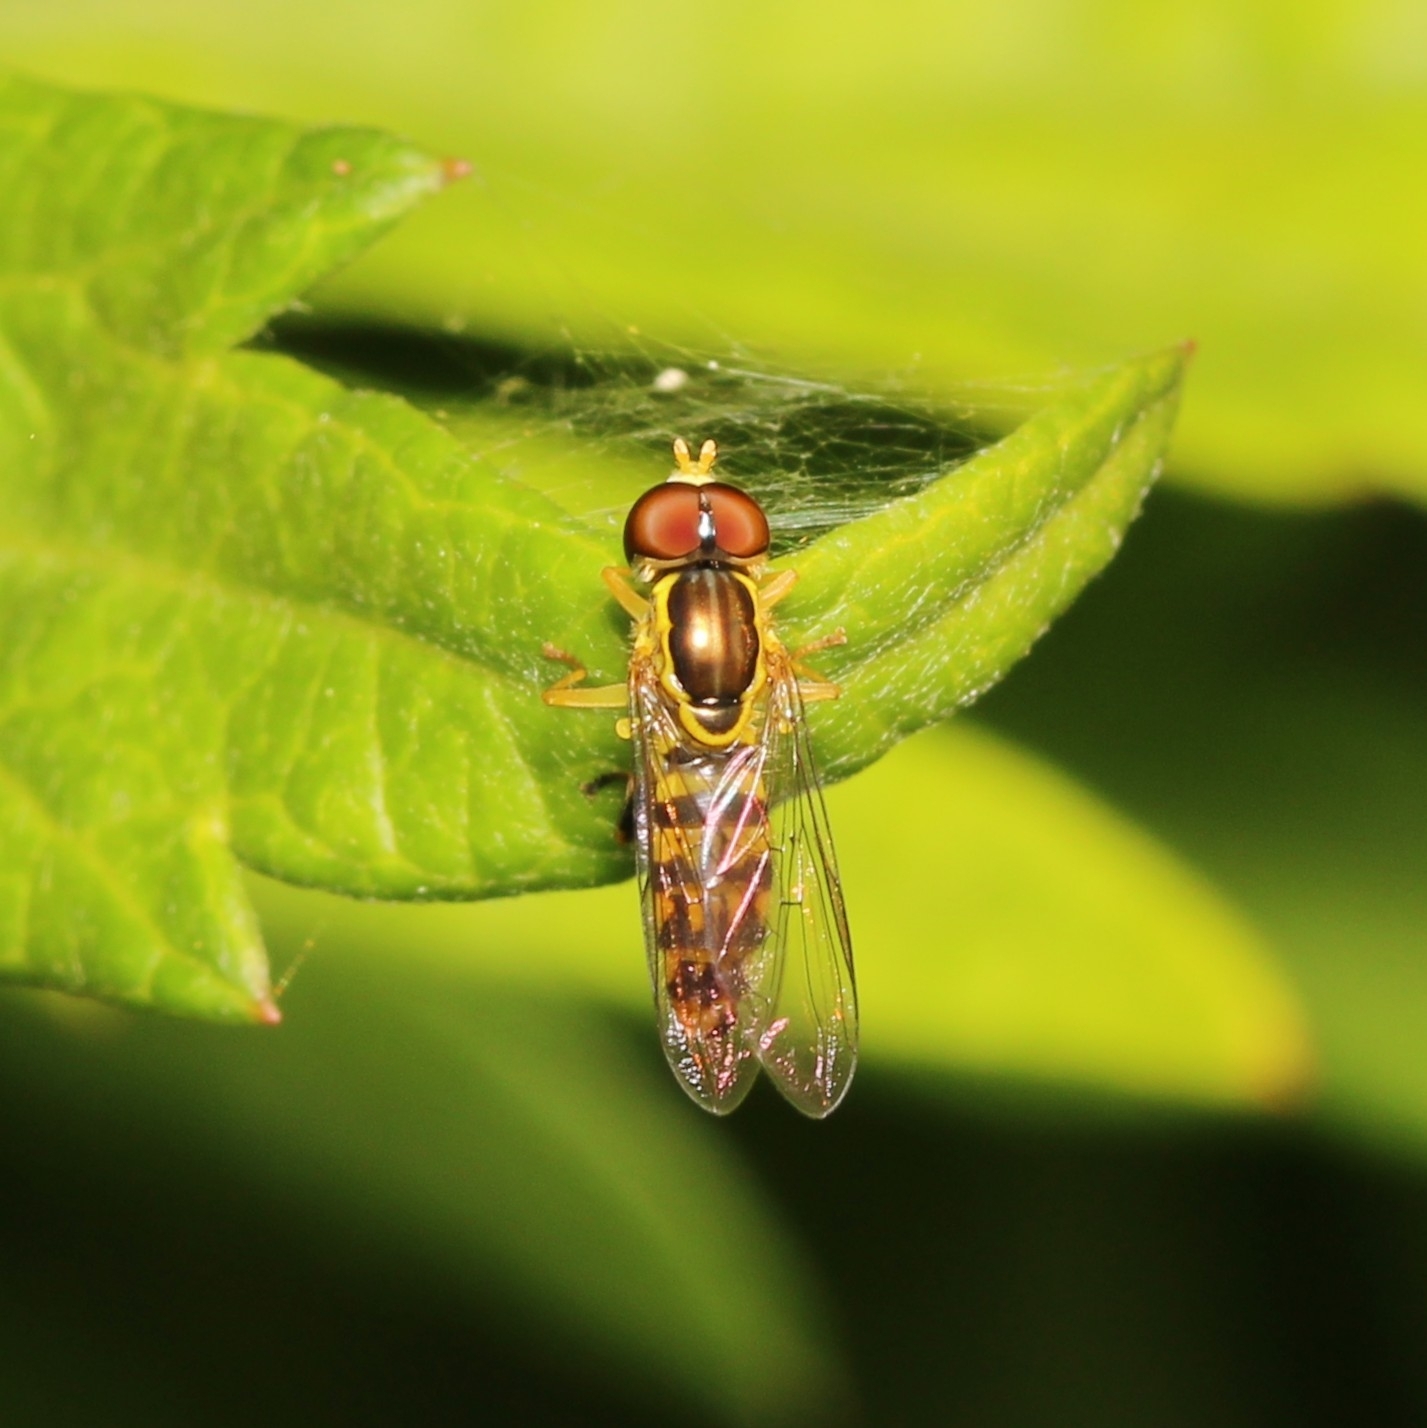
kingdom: Animalia
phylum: Arthropoda
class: Insecta
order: Diptera
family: Syrphidae
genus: Toxomerus
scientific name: Toxomerus geminatus
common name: Eastern calligrapher
